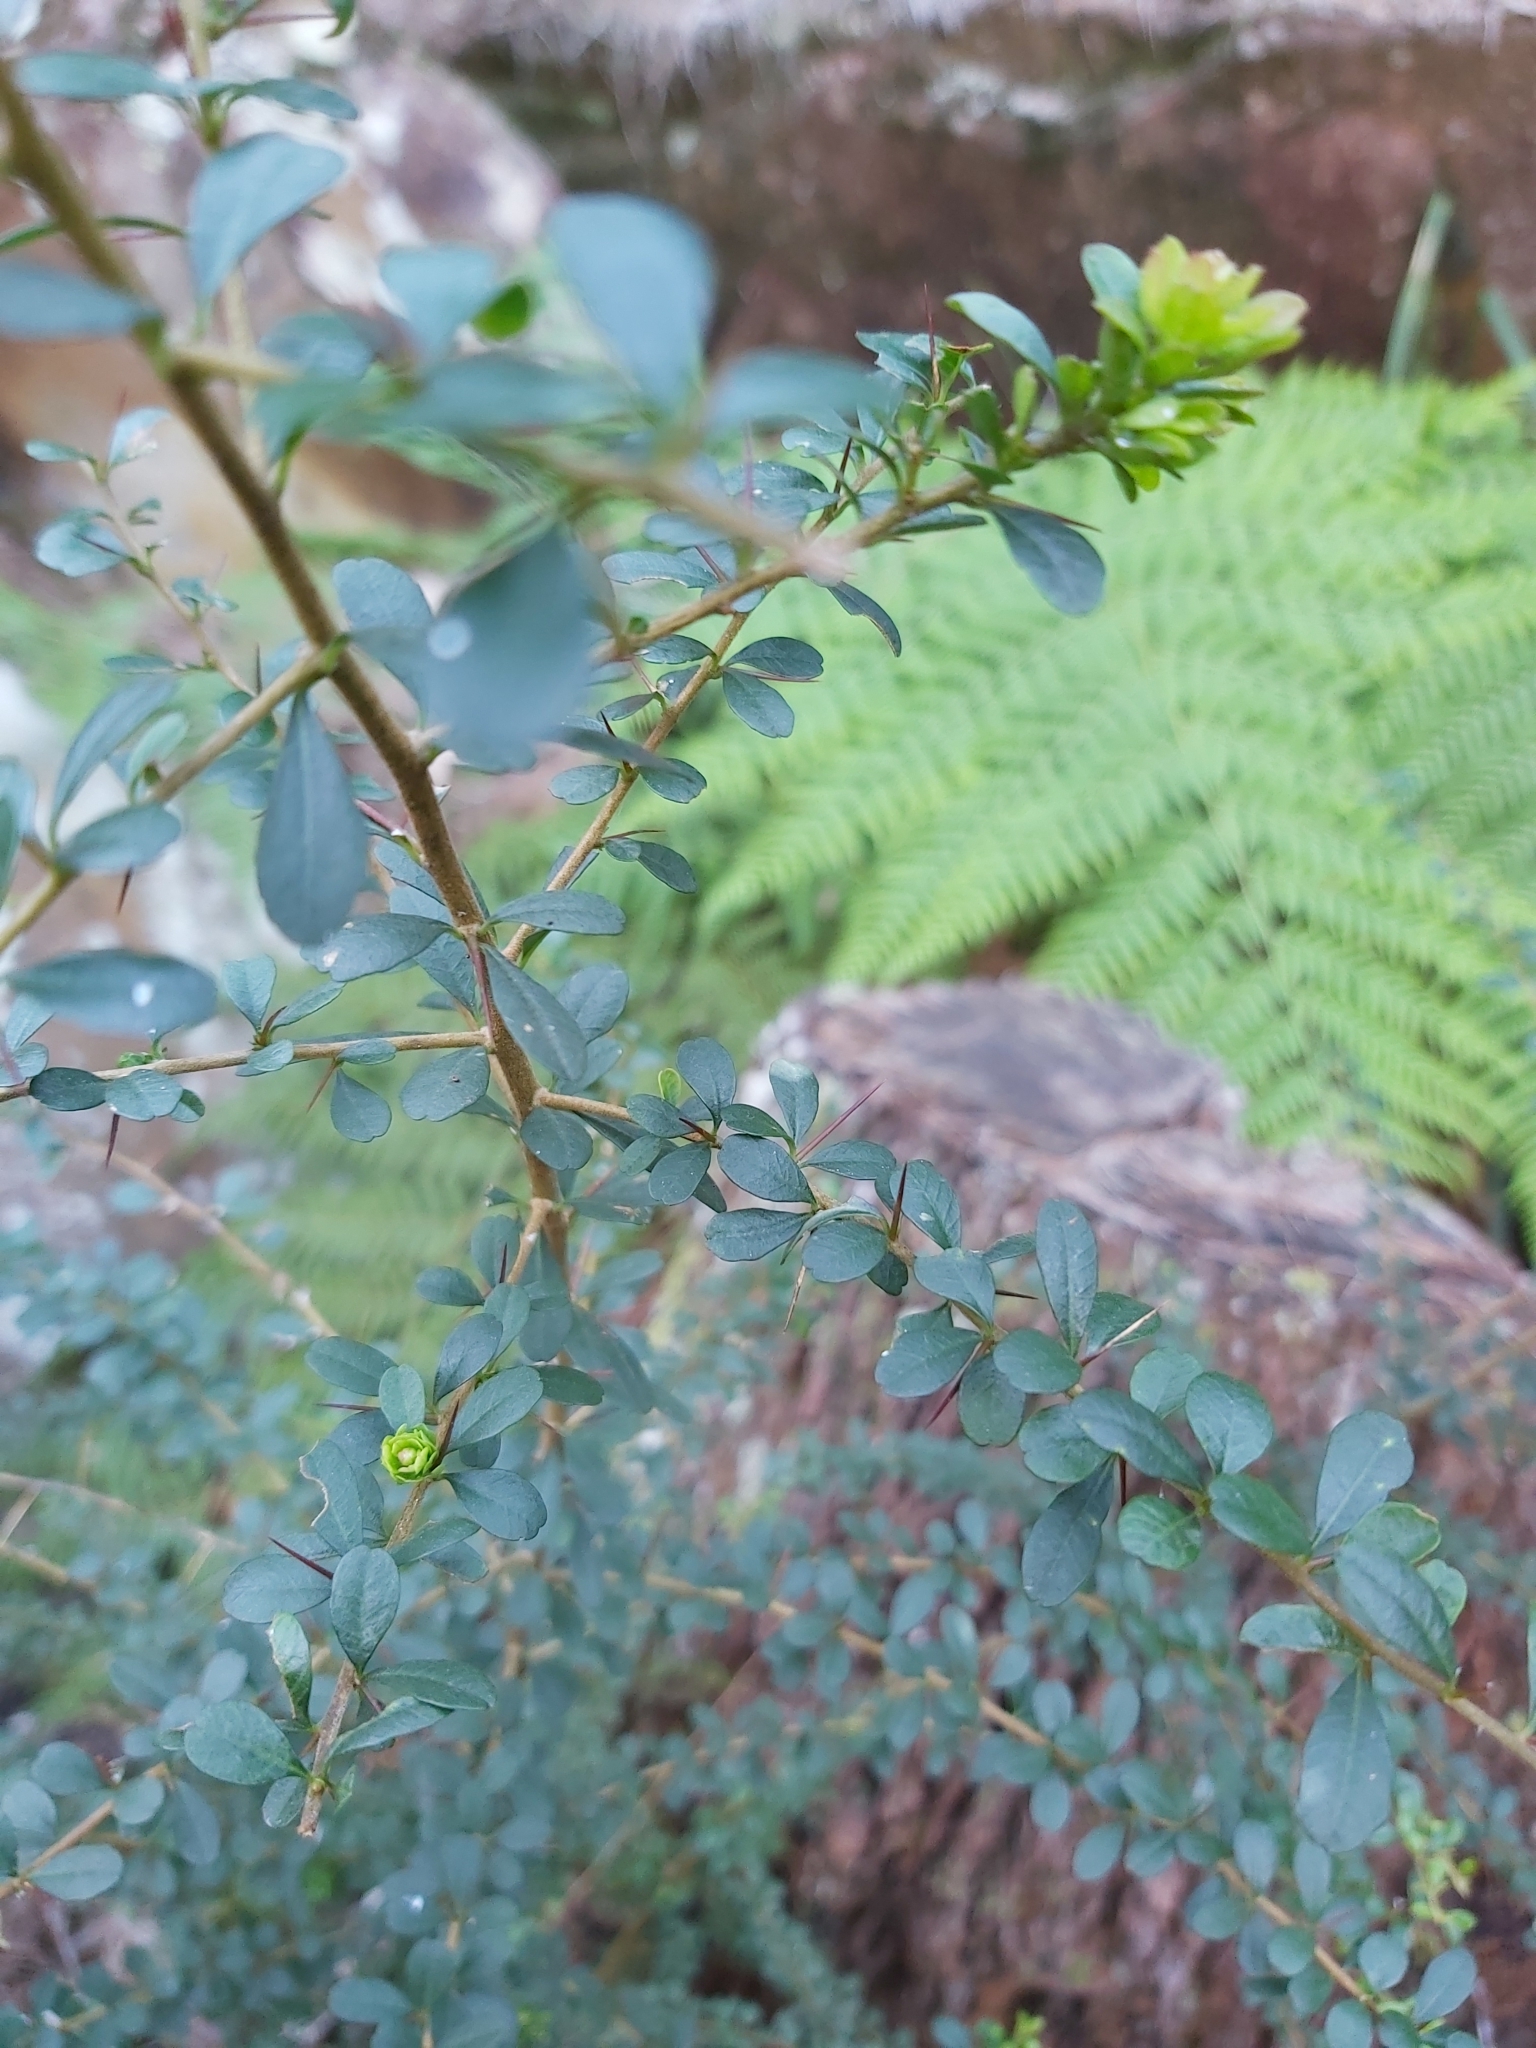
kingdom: Plantae
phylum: Tracheophyta
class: Magnoliopsida
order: Apiales
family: Pittosporaceae
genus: Bursaria
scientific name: Bursaria spinosa
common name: Australian blackthorn
